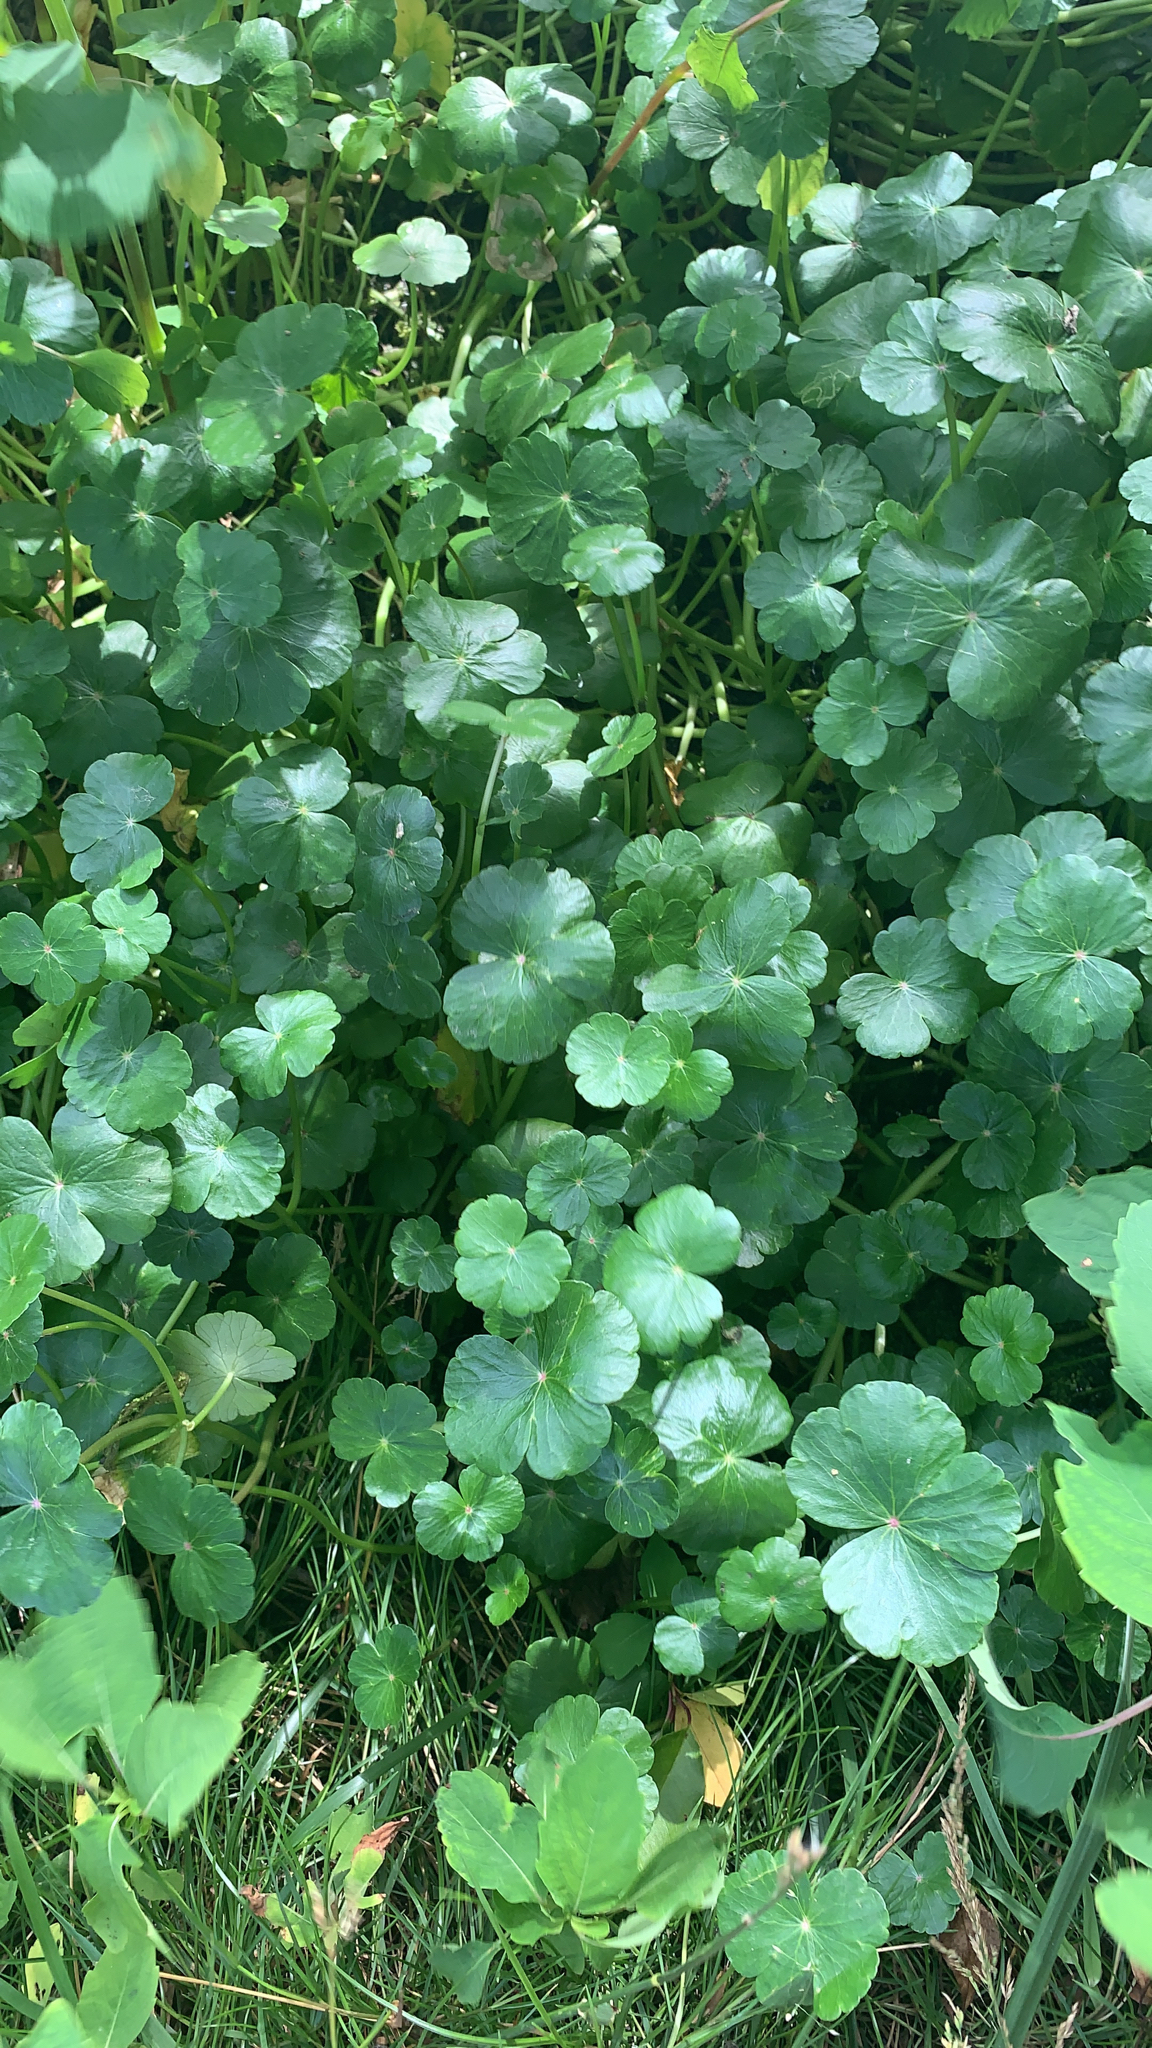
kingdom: Plantae
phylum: Tracheophyta
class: Magnoliopsida
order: Apiales
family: Araliaceae
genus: Hydrocotyle
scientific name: Hydrocotyle ranunculoides
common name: Floating pennywort
